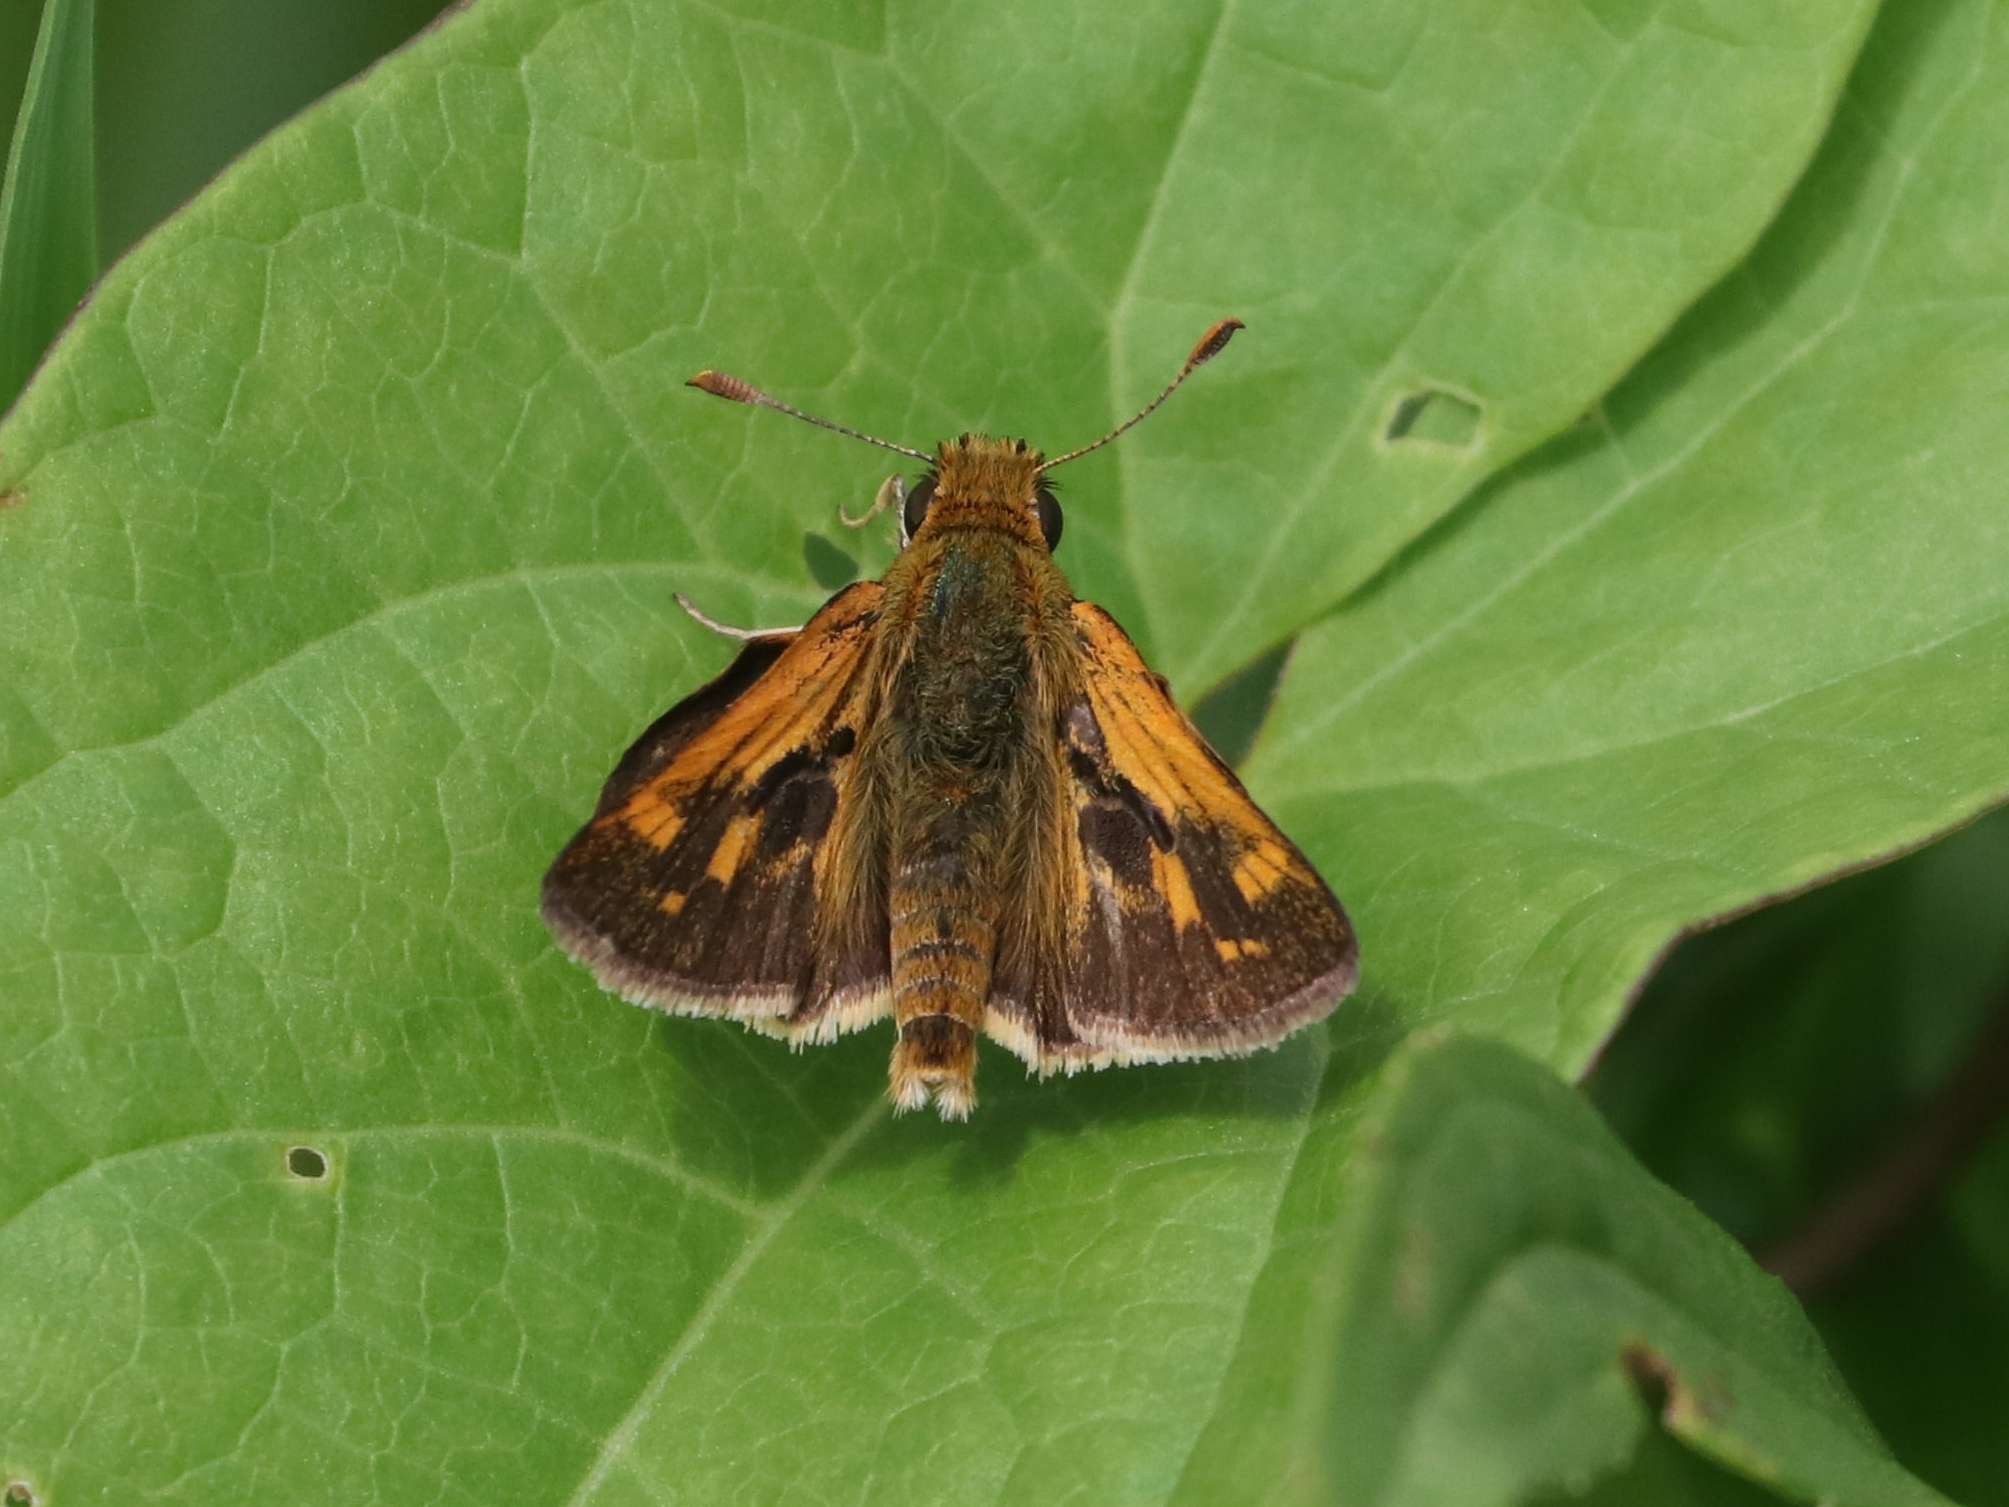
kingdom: Animalia
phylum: Arthropoda
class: Insecta
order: Lepidoptera
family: Hesperiidae
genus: Polites
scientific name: Polites coras
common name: Peck's skipper
